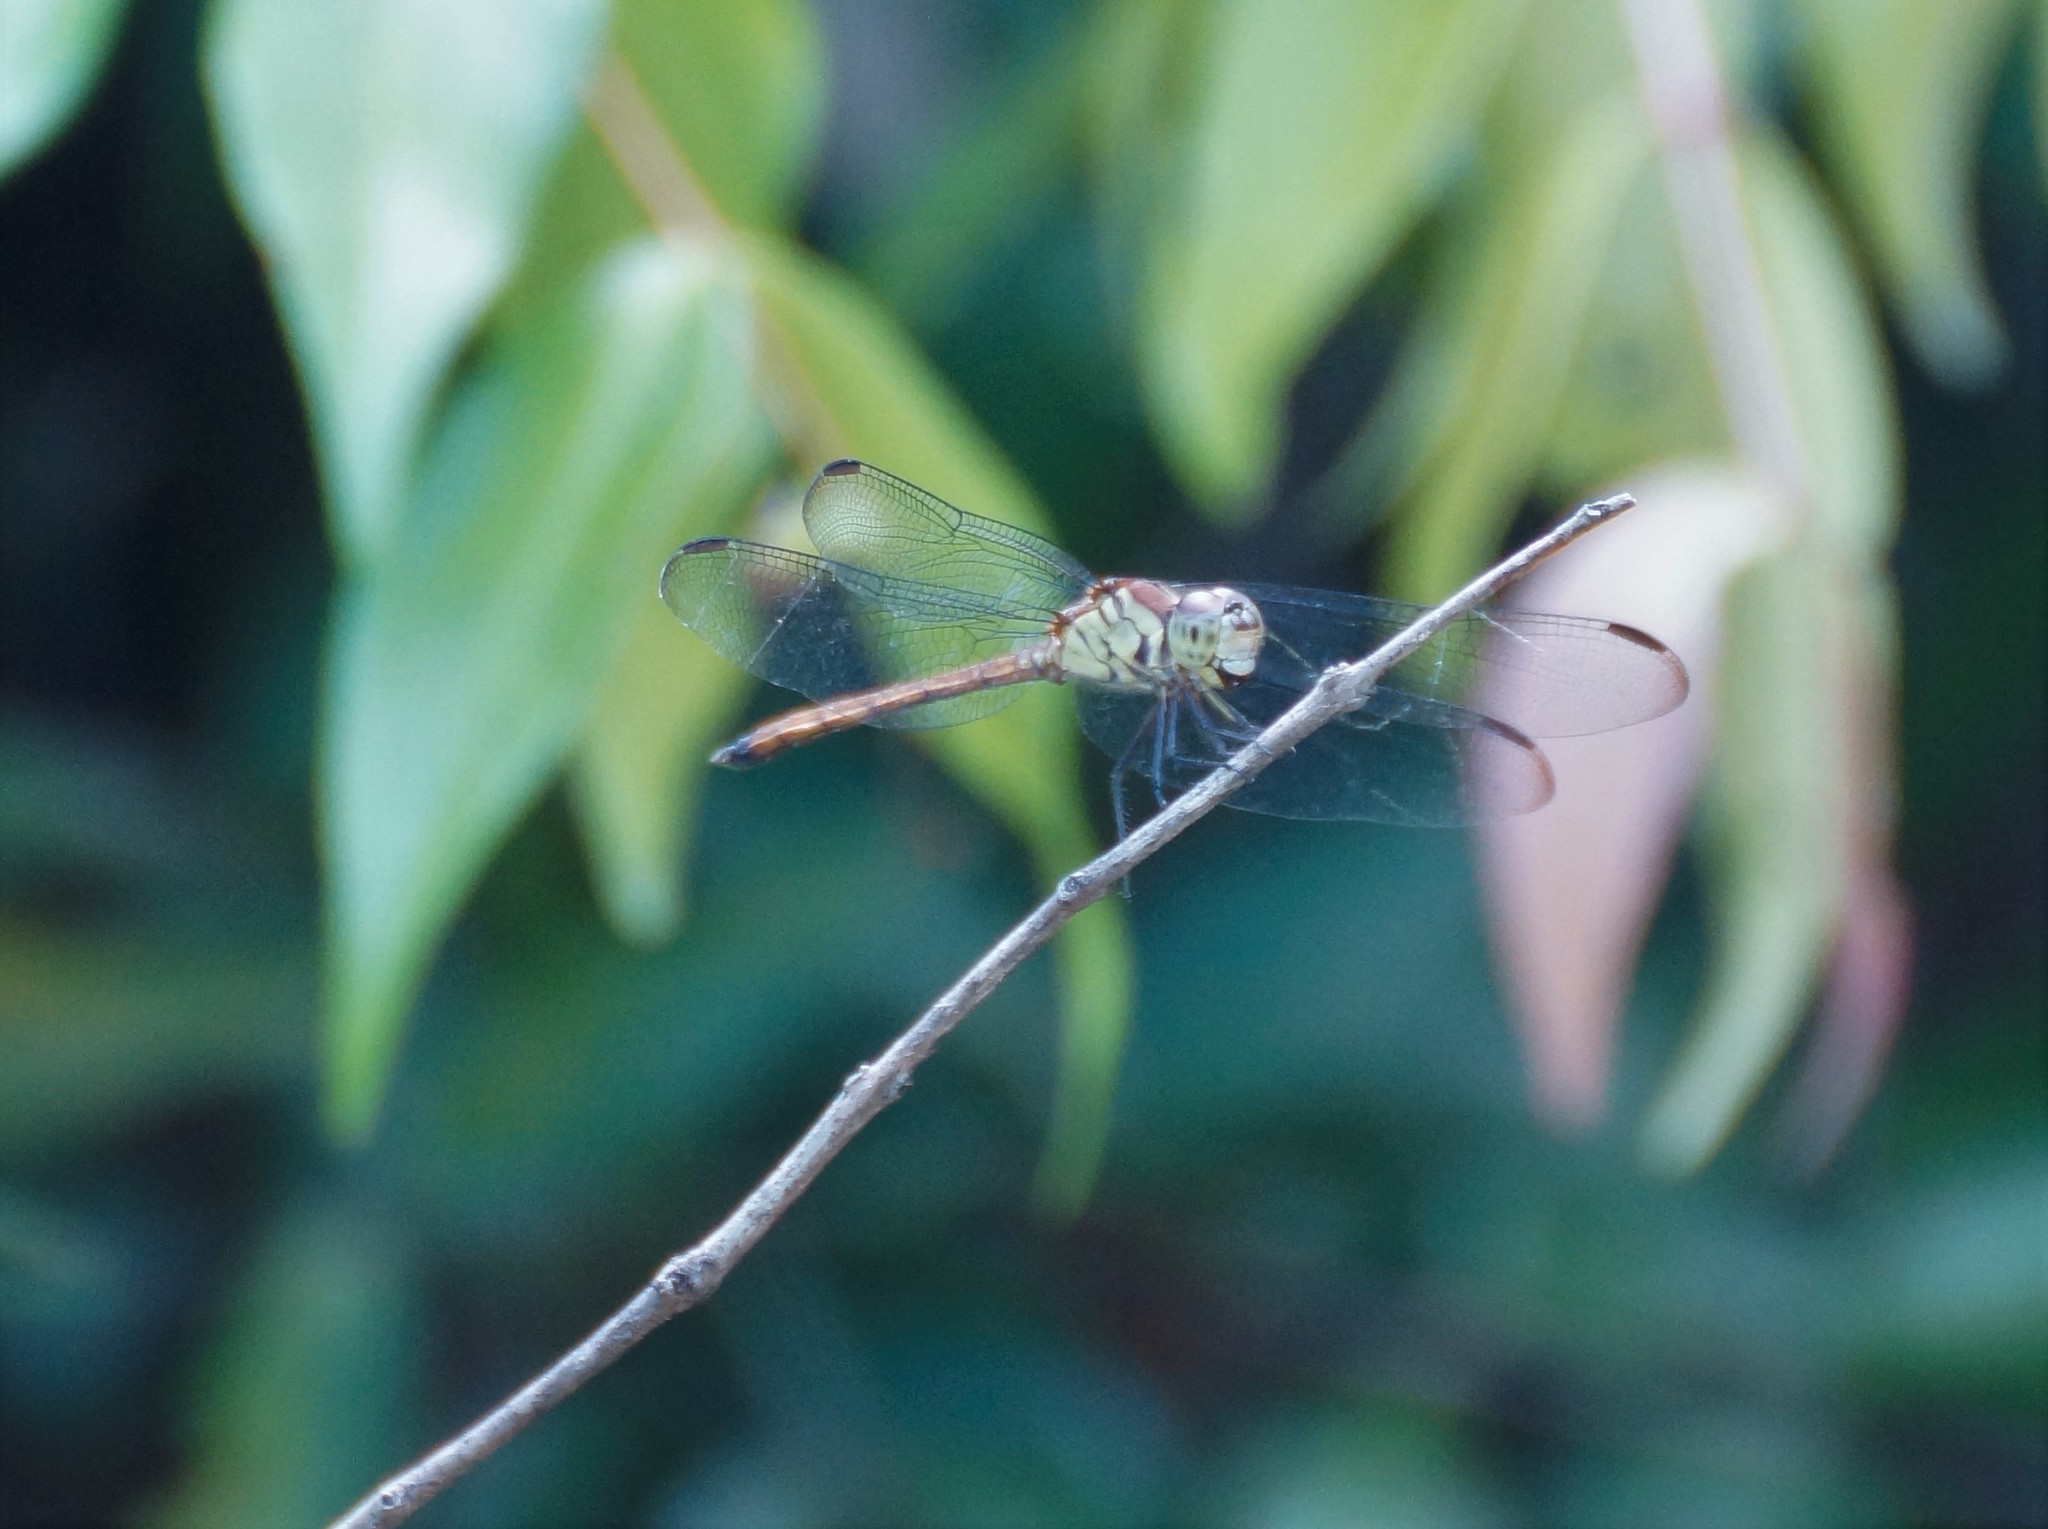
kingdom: Animalia
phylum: Arthropoda
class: Insecta
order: Odonata
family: Libellulidae
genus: Lathrecista
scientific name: Lathrecista asiatica
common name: Scarlet grenadier
